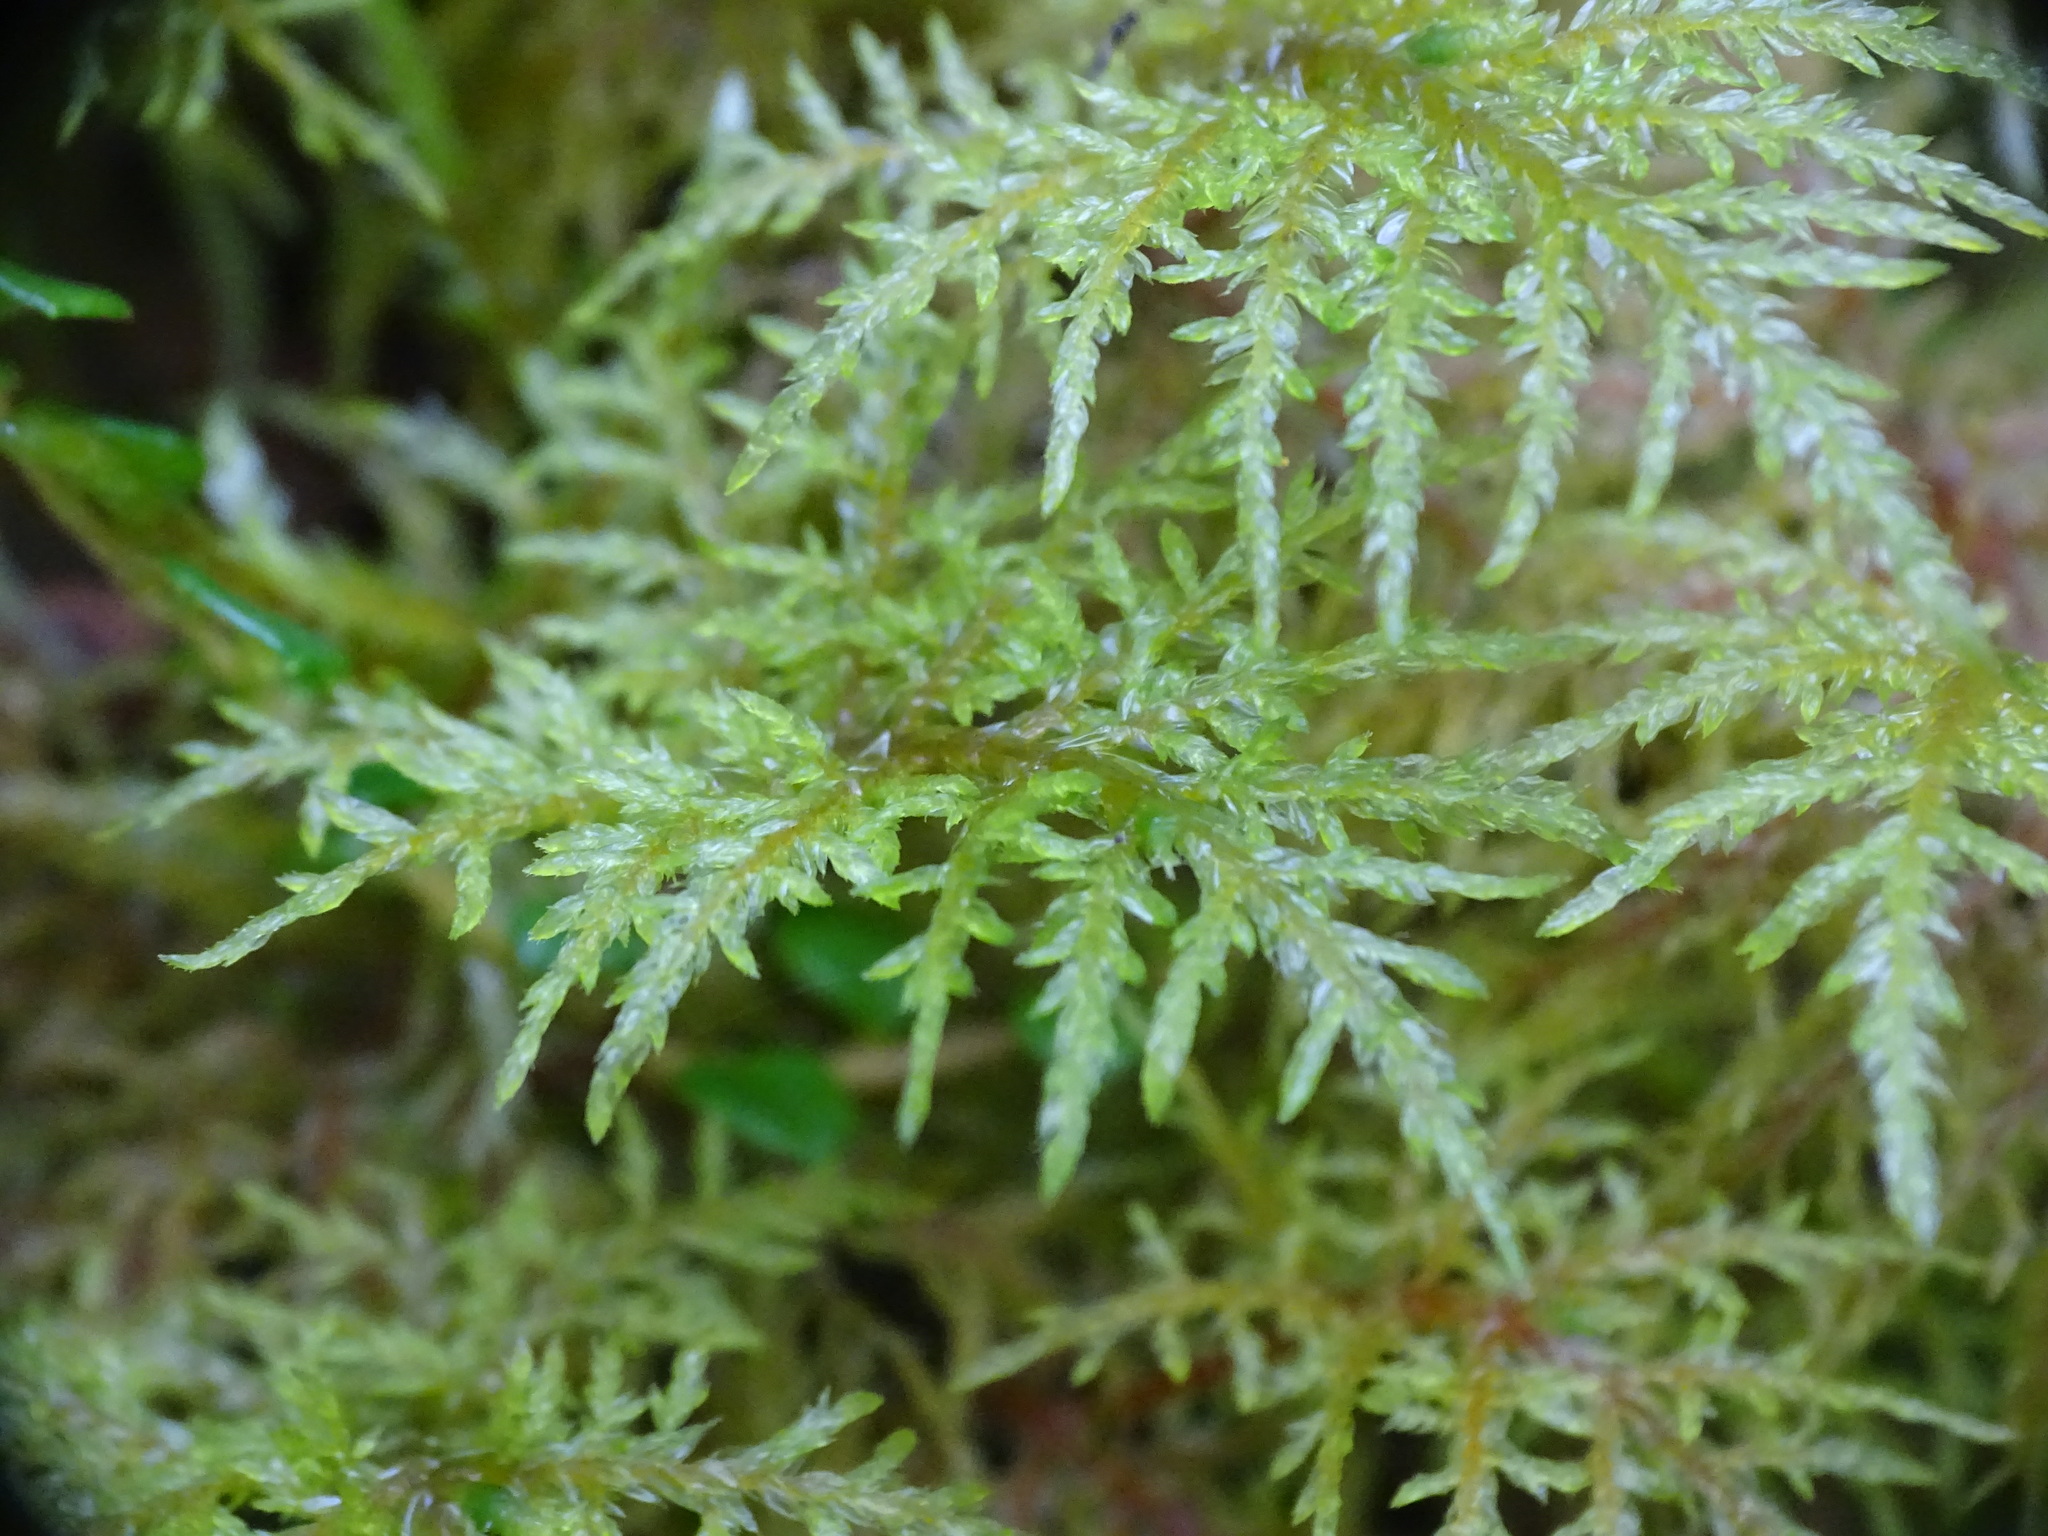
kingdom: Plantae
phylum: Bryophyta
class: Bryopsida
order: Hypnales
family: Hylocomiaceae
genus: Hylocomium
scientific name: Hylocomium splendens
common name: Stairstep moss
